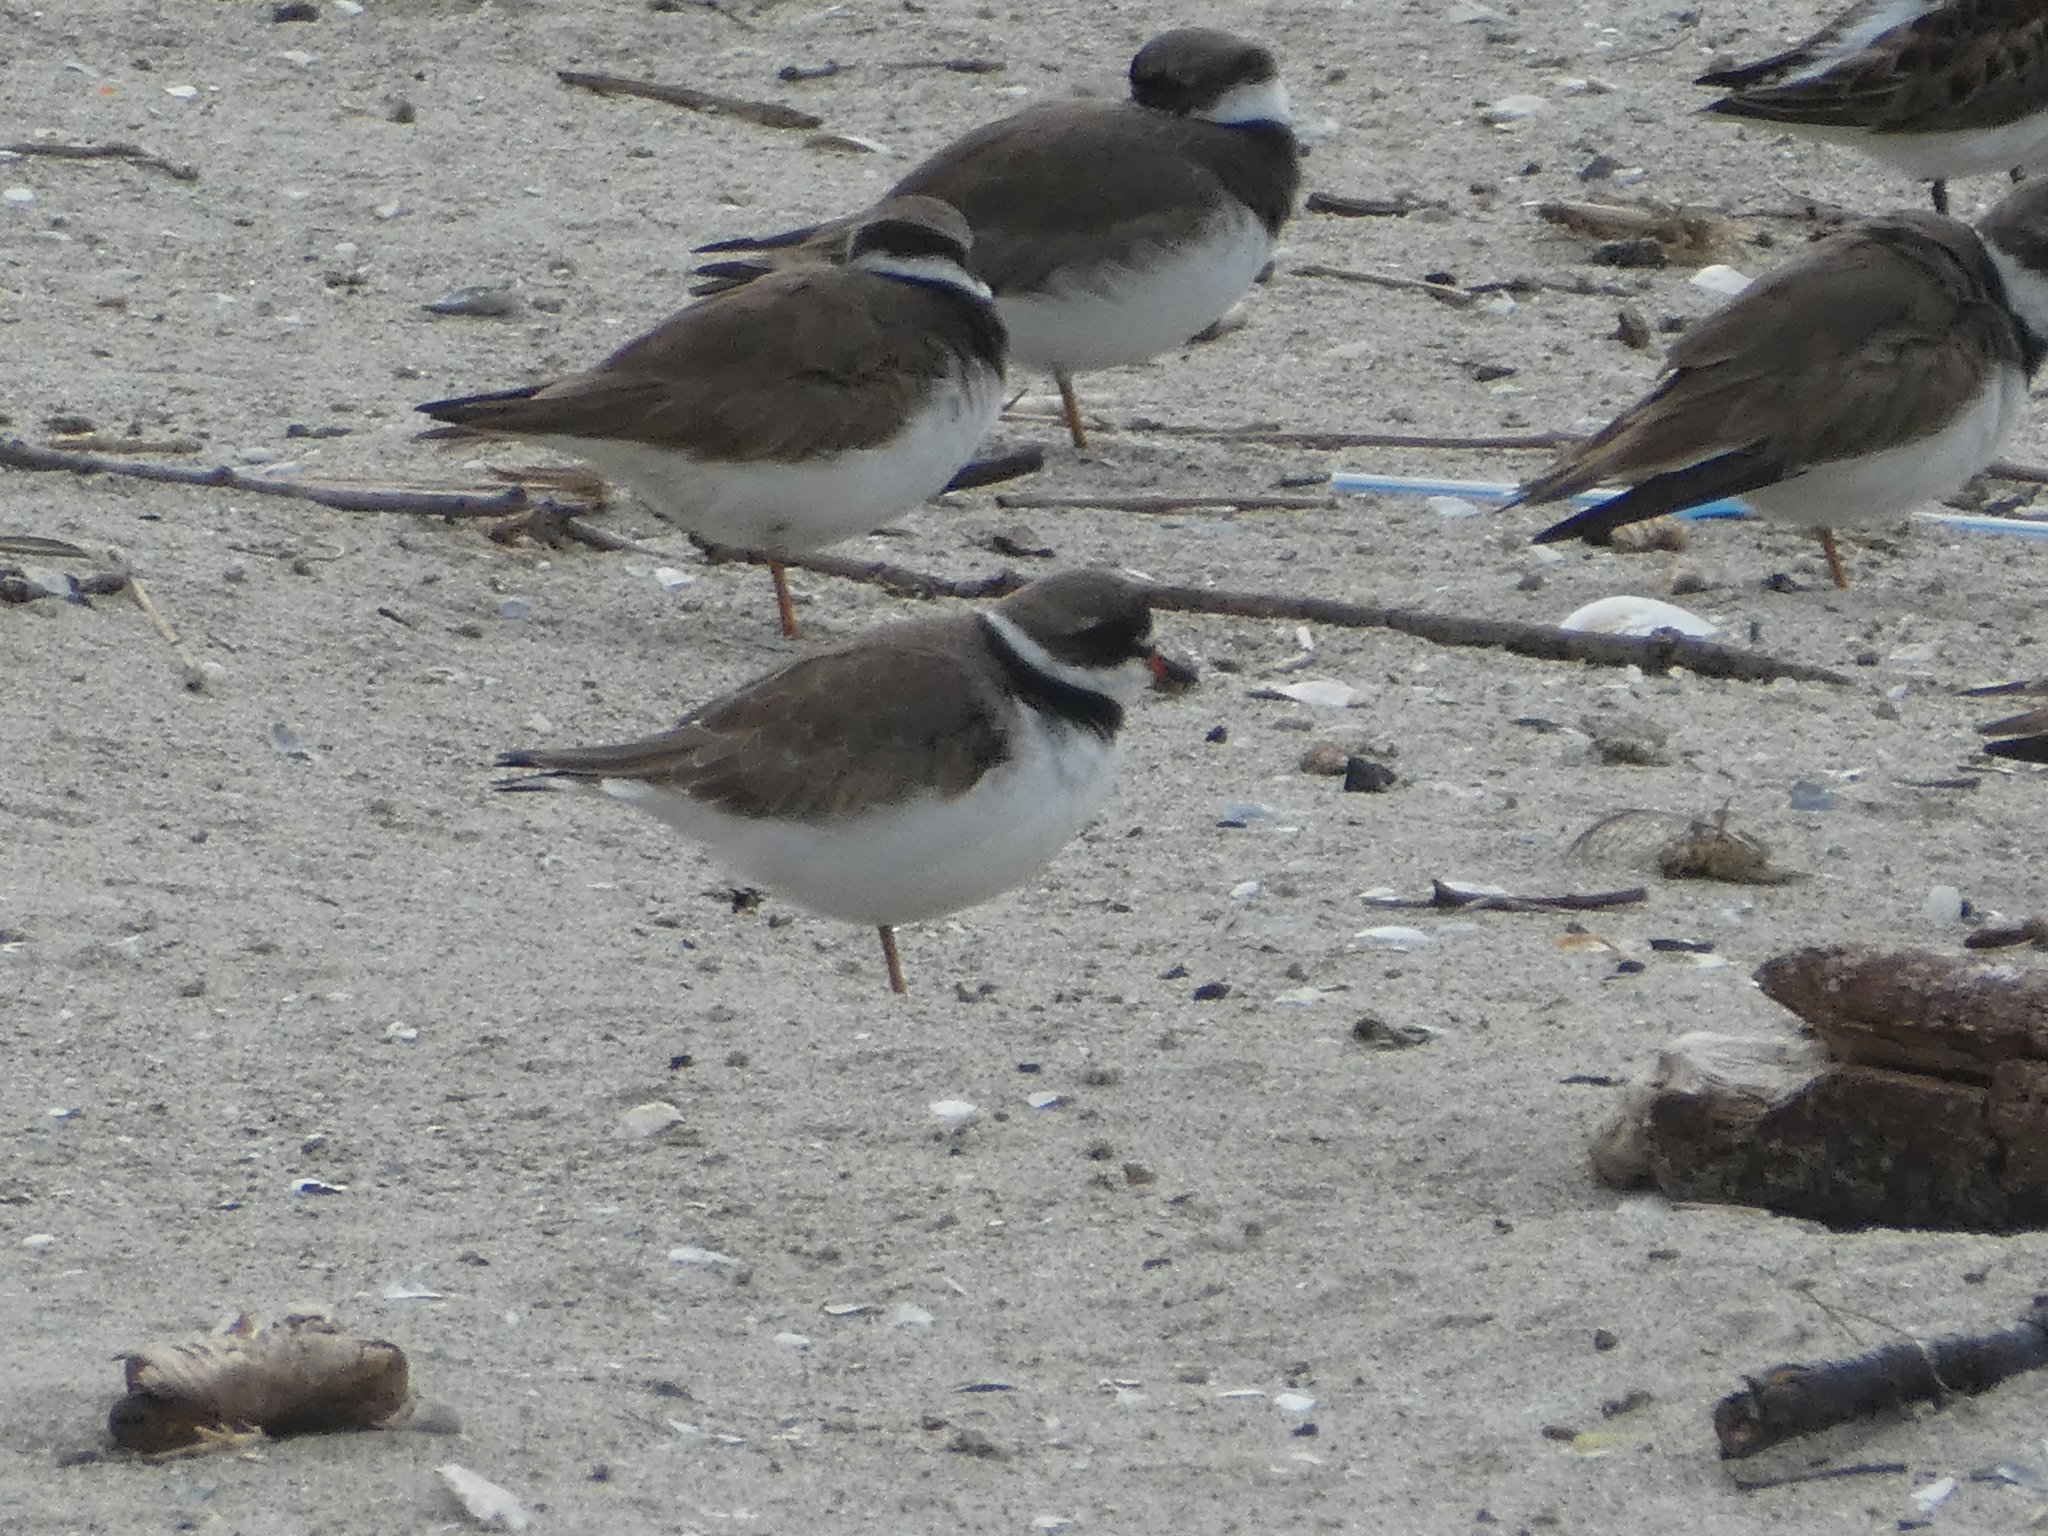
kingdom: Animalia
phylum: Chordata
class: Aves
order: Charadriiformes
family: Charadriidae
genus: Charadrius
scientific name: Charadrius semipalmatus
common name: Semipalmated plover
